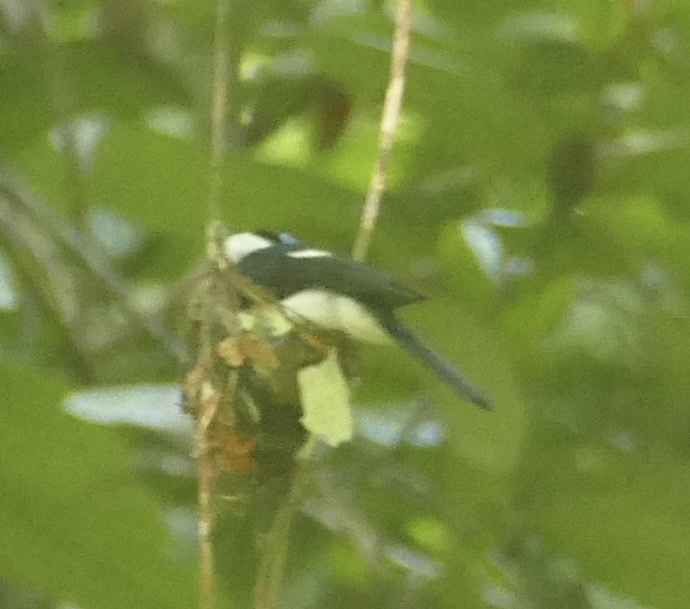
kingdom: Animalia
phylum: Chordata
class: Aves
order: Passeriformes
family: Monarchidae
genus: Arses
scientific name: Arses telescopthalmus
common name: Frilled monarch
